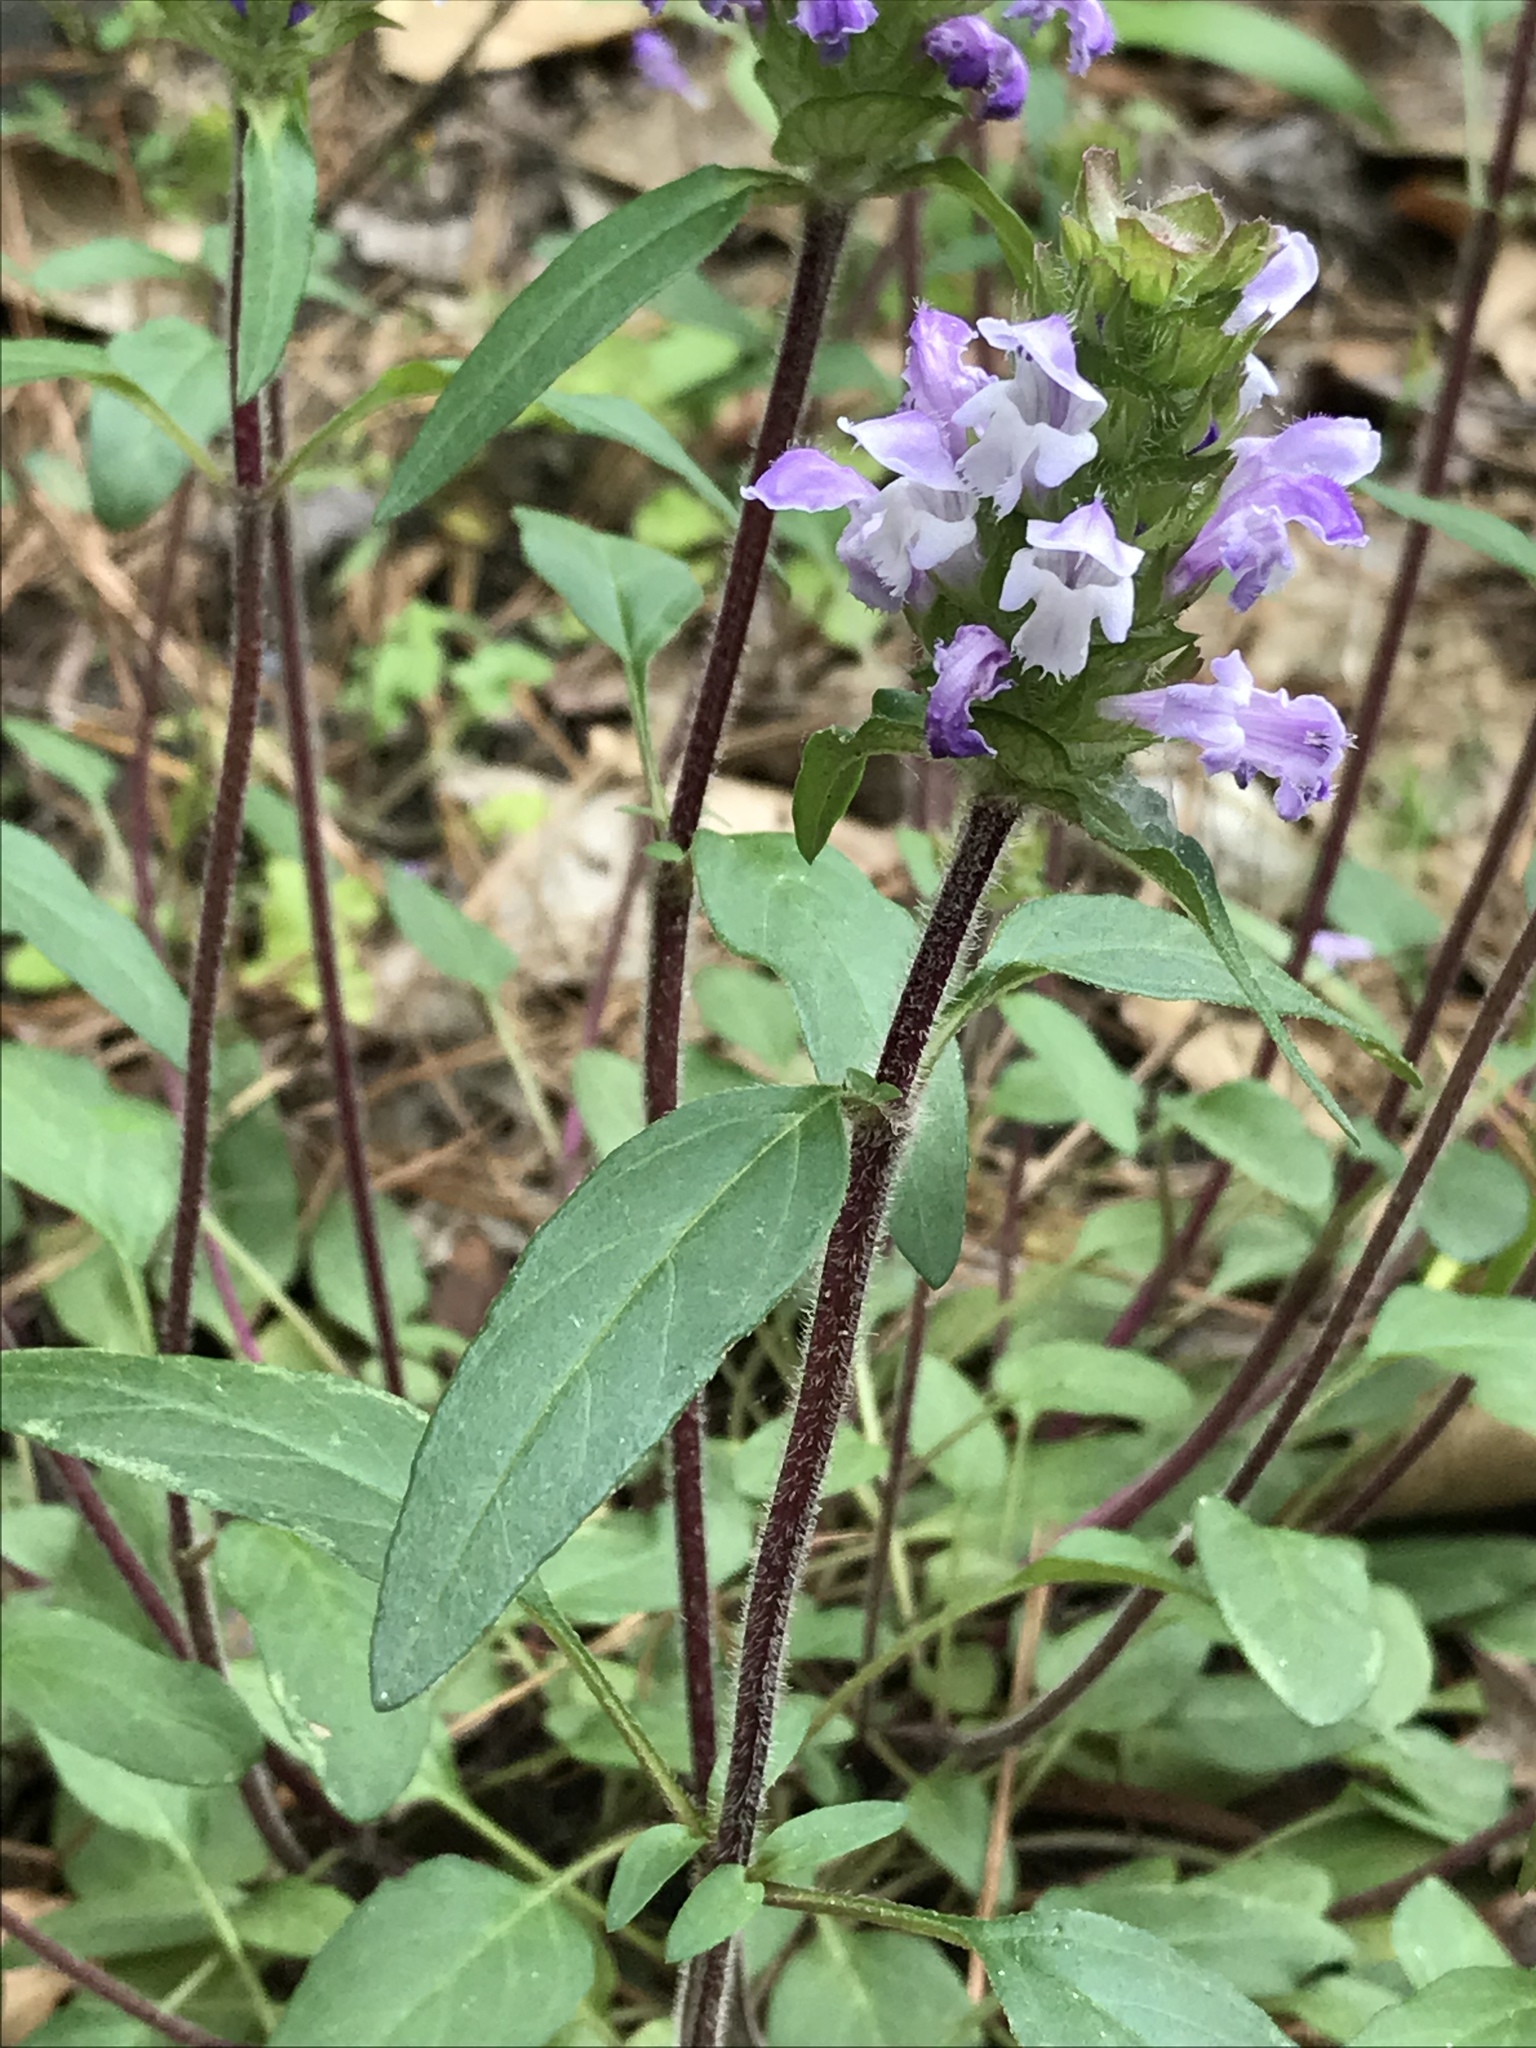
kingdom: Plantae
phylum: Tracheophyta
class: Magnoliopsida
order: Lamiales
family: Lamiaceae
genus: Prunella
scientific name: Prunella vulgaris
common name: Heal-all
